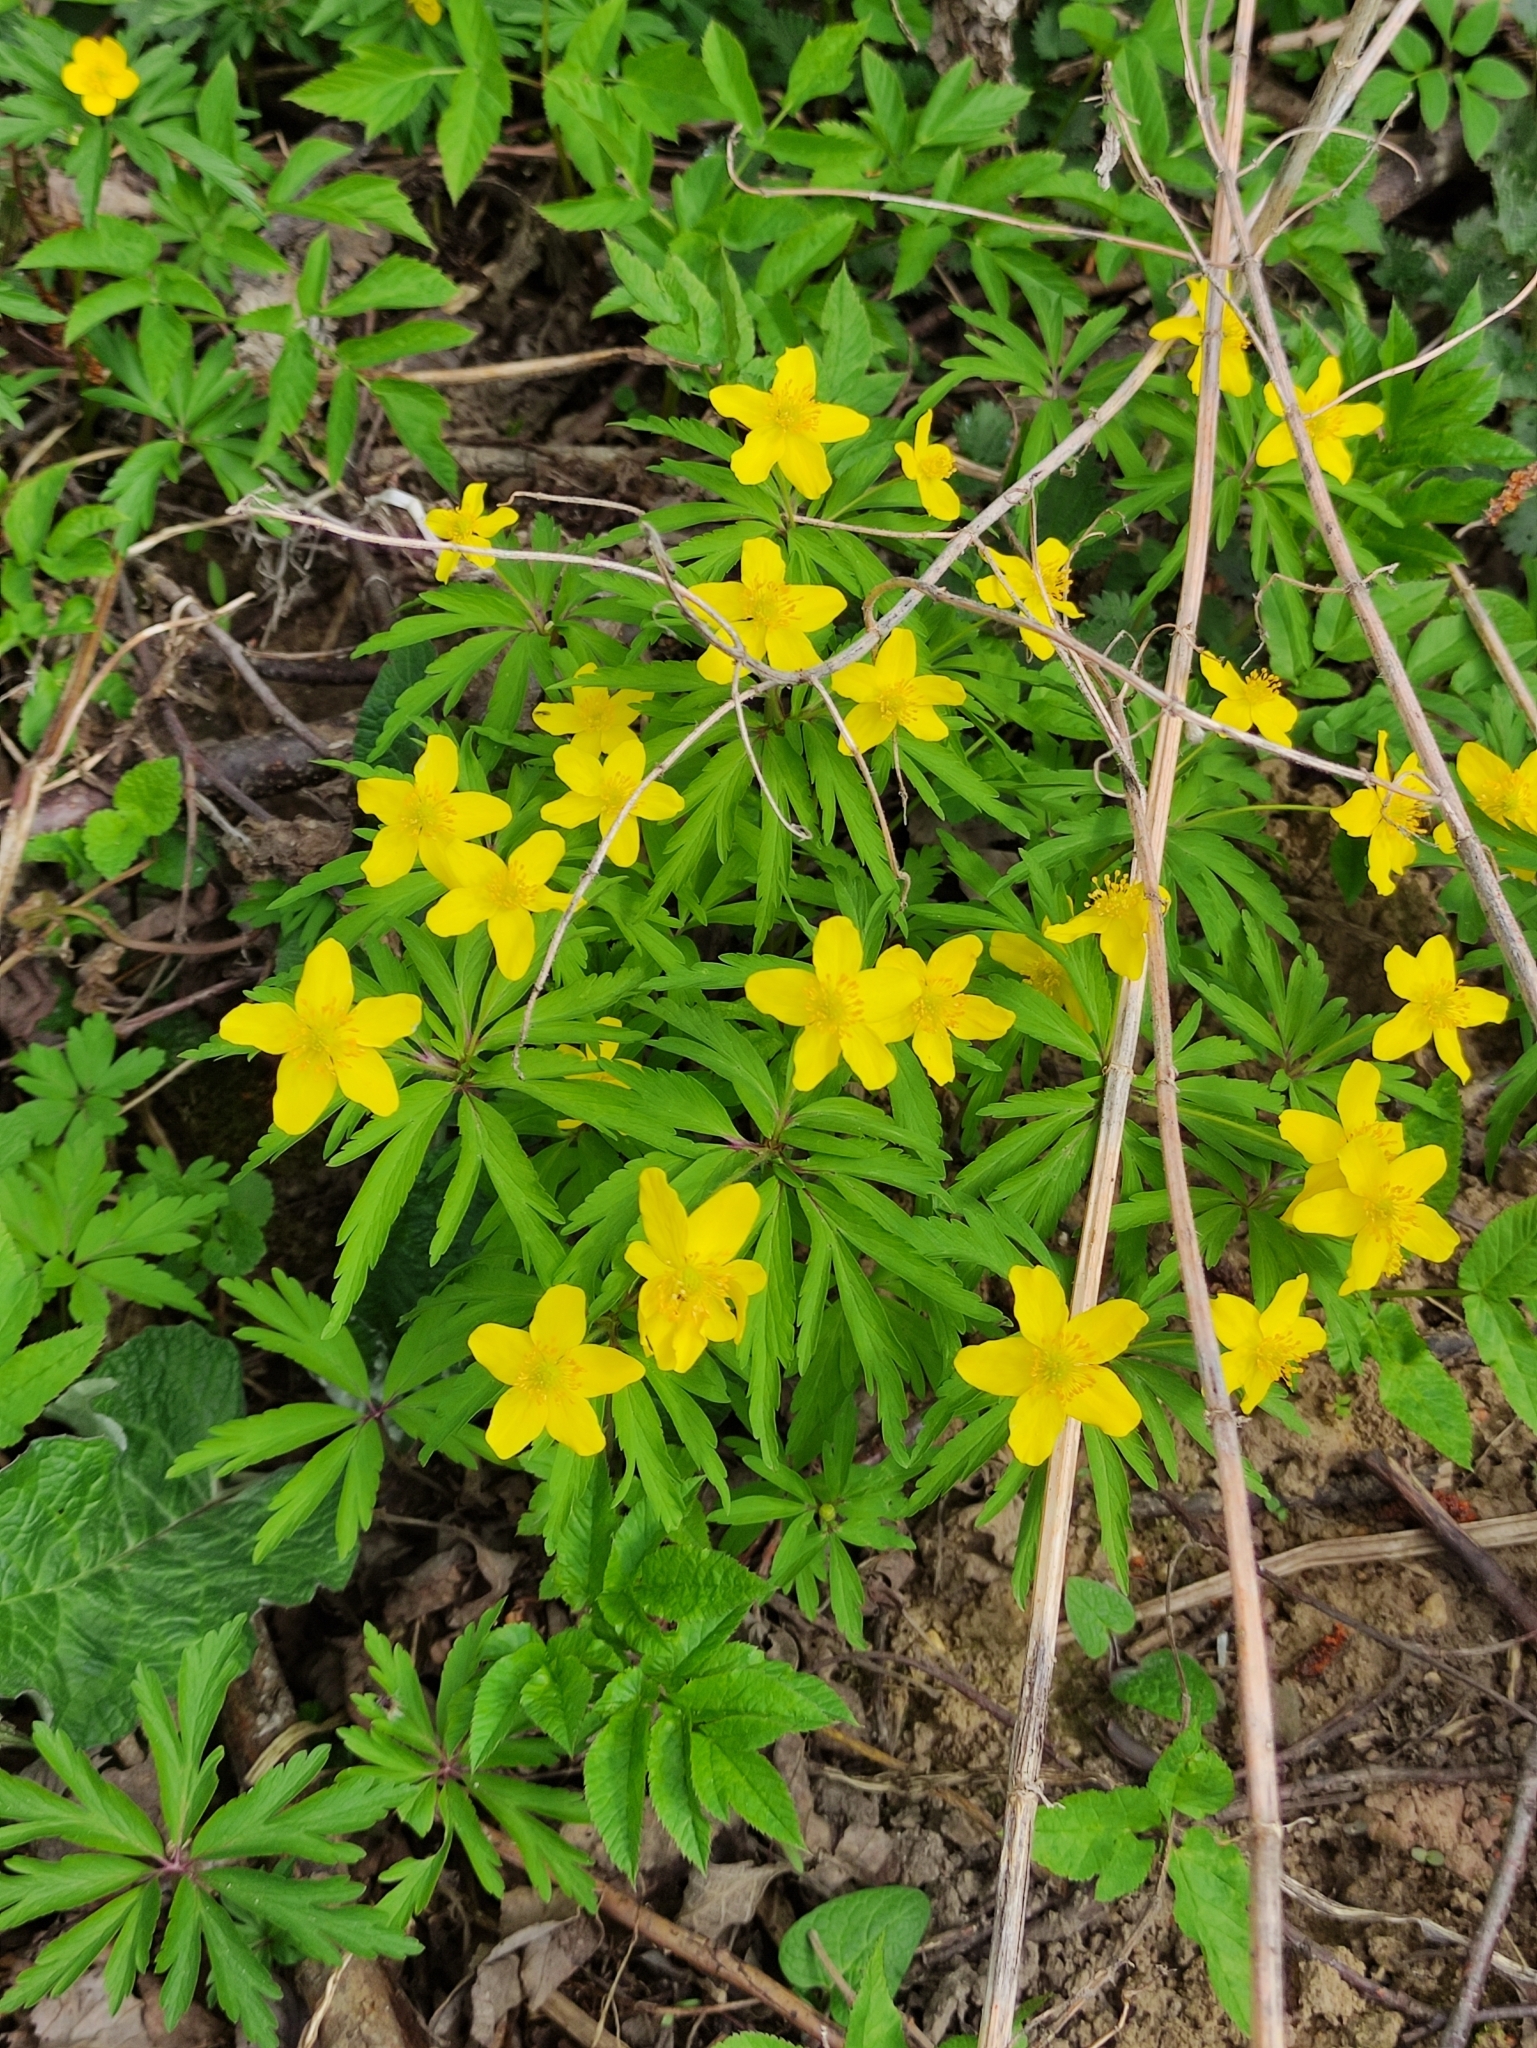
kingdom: Plantae
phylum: Tracheophyta
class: Magnoliopsida
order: Ranunculales
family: Ranunculaceae
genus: Anemone
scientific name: Anemone ranunculoides
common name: Yellow anemone
